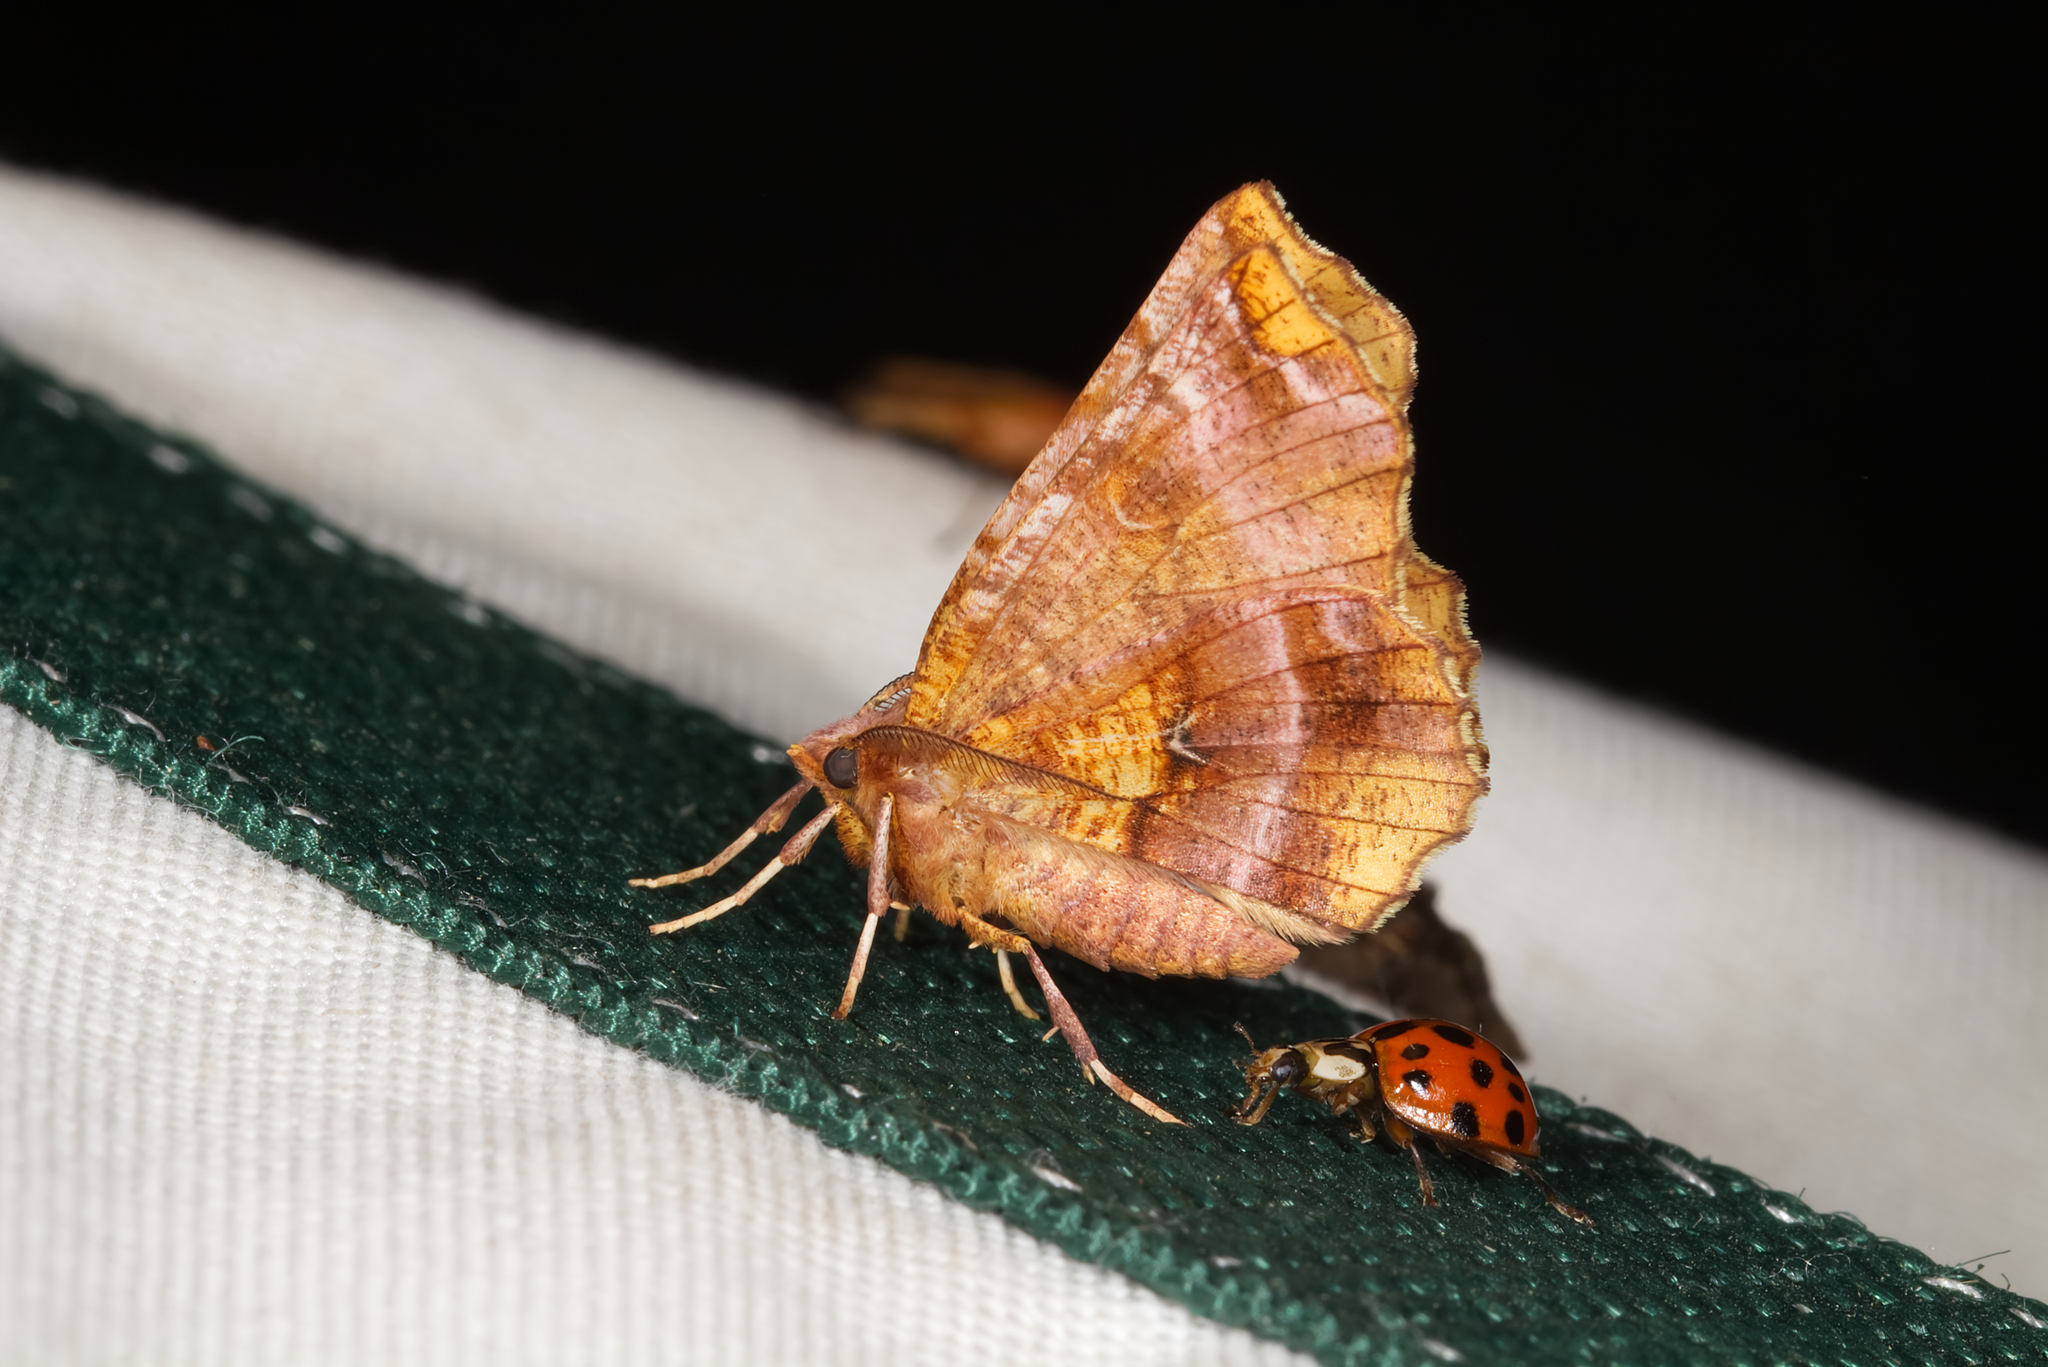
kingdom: Animalia
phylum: Arthropoda
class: Insecta
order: Lepidoptera
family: Geometridae
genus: Selenia
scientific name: Selenia dentaria
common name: Early thorn
